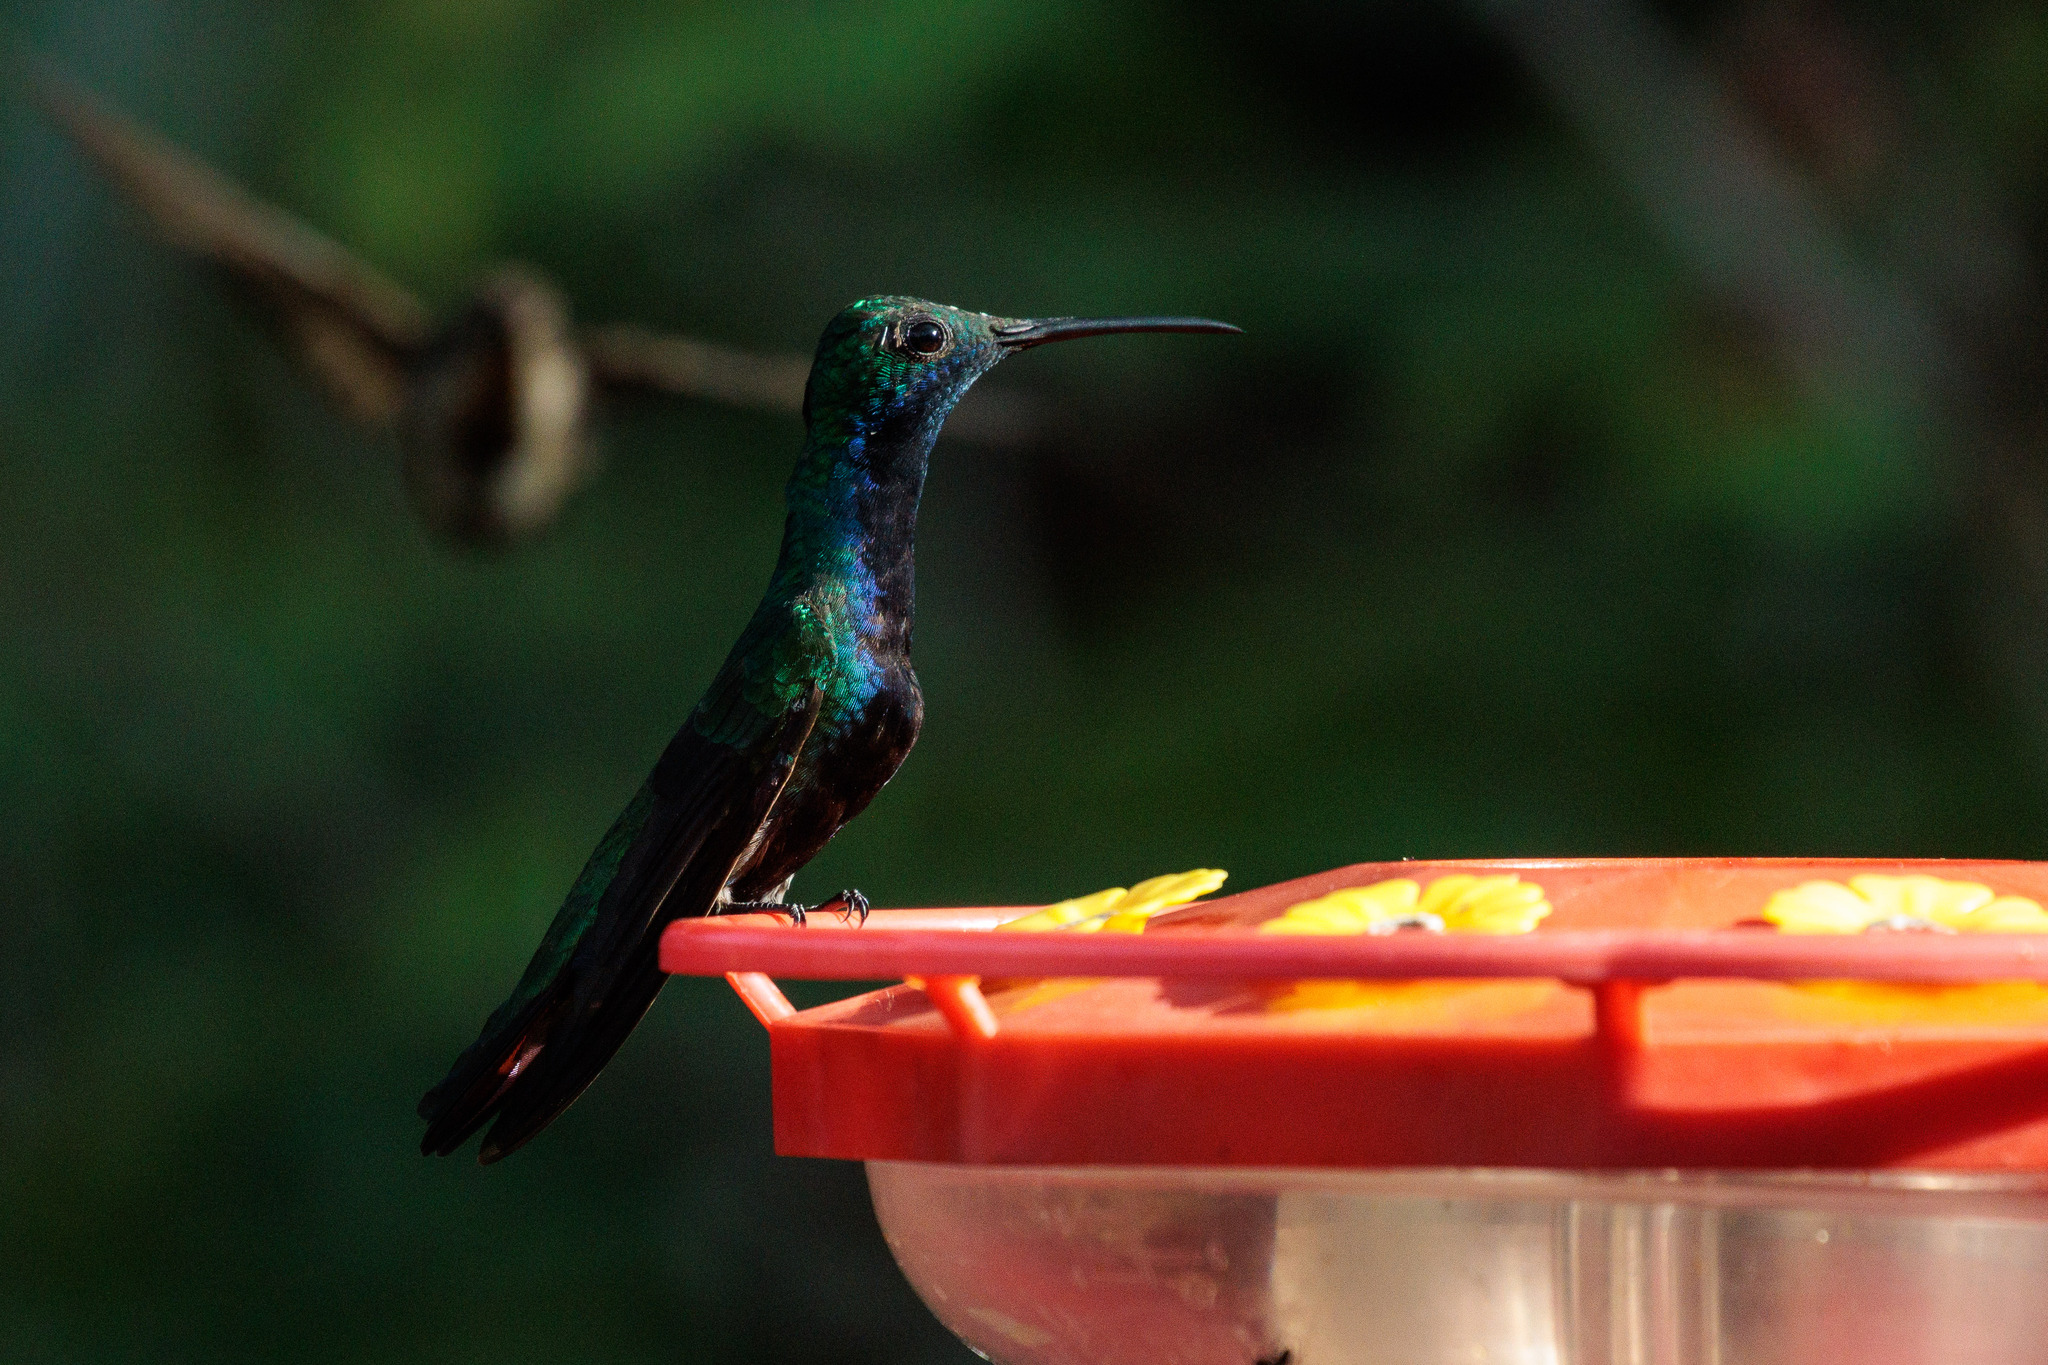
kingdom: Animalia
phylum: Chordata
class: Aves
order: Apodiformes
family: Trochilidae
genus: Anthracothorax
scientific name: Anthracothorax nigricollis
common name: Black-throated mango
